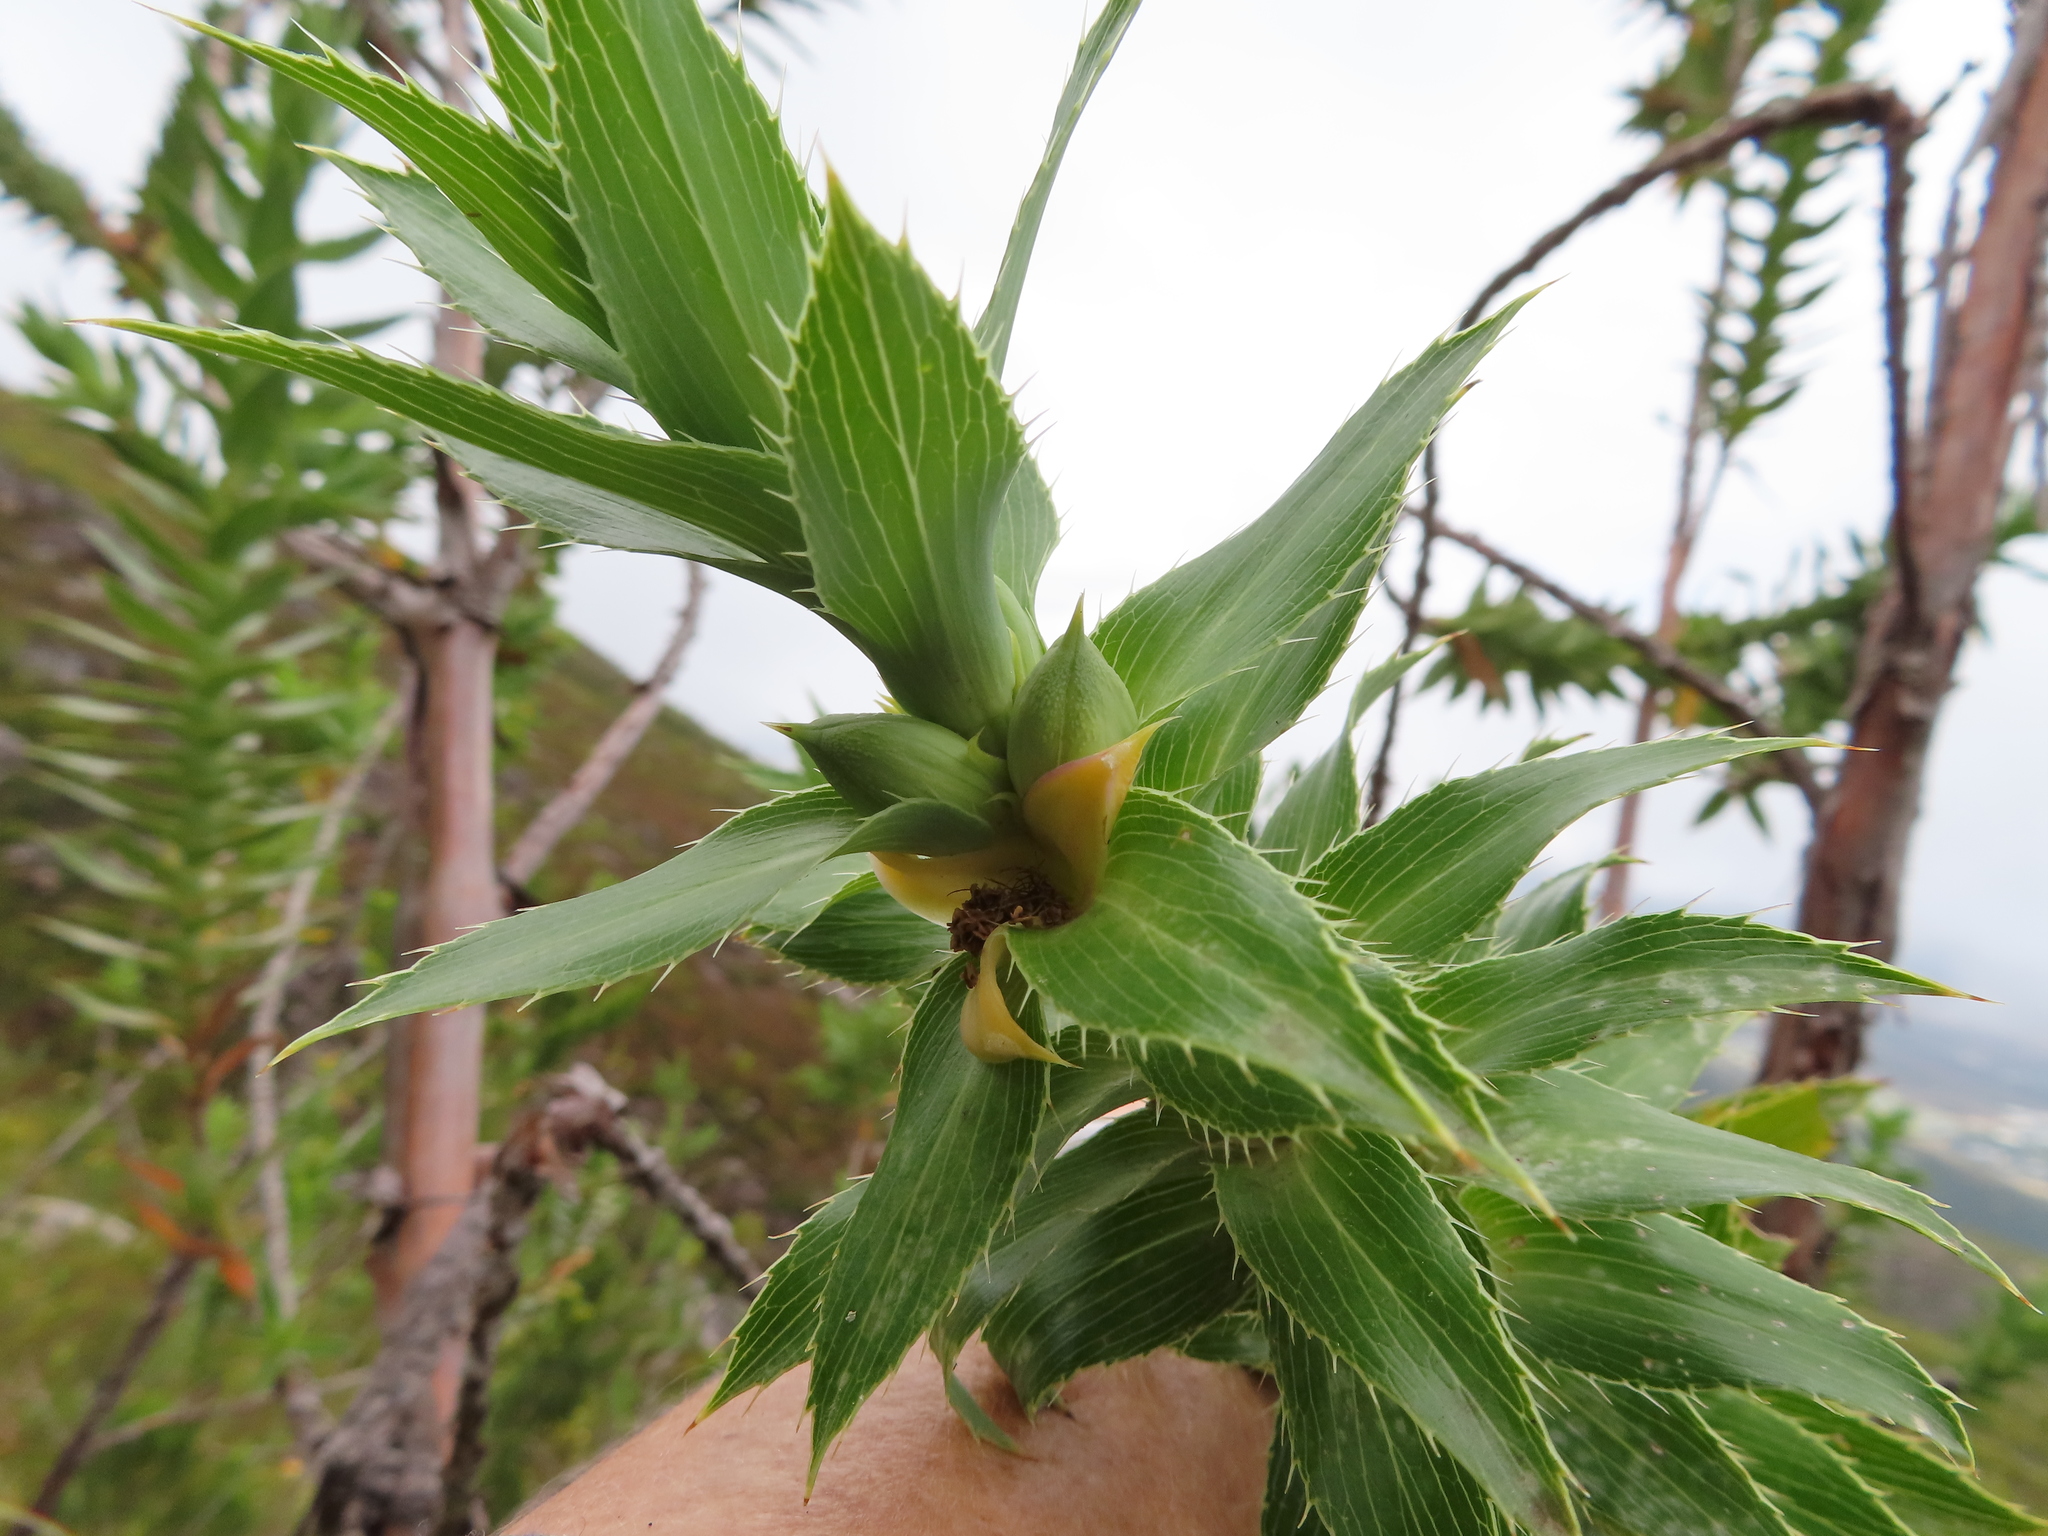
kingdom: Plantae
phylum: Tracheophyta
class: Magnoliopsida
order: Rosales
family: Rosaceae
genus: Cliffortia
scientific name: Cliffortia grandifolia
